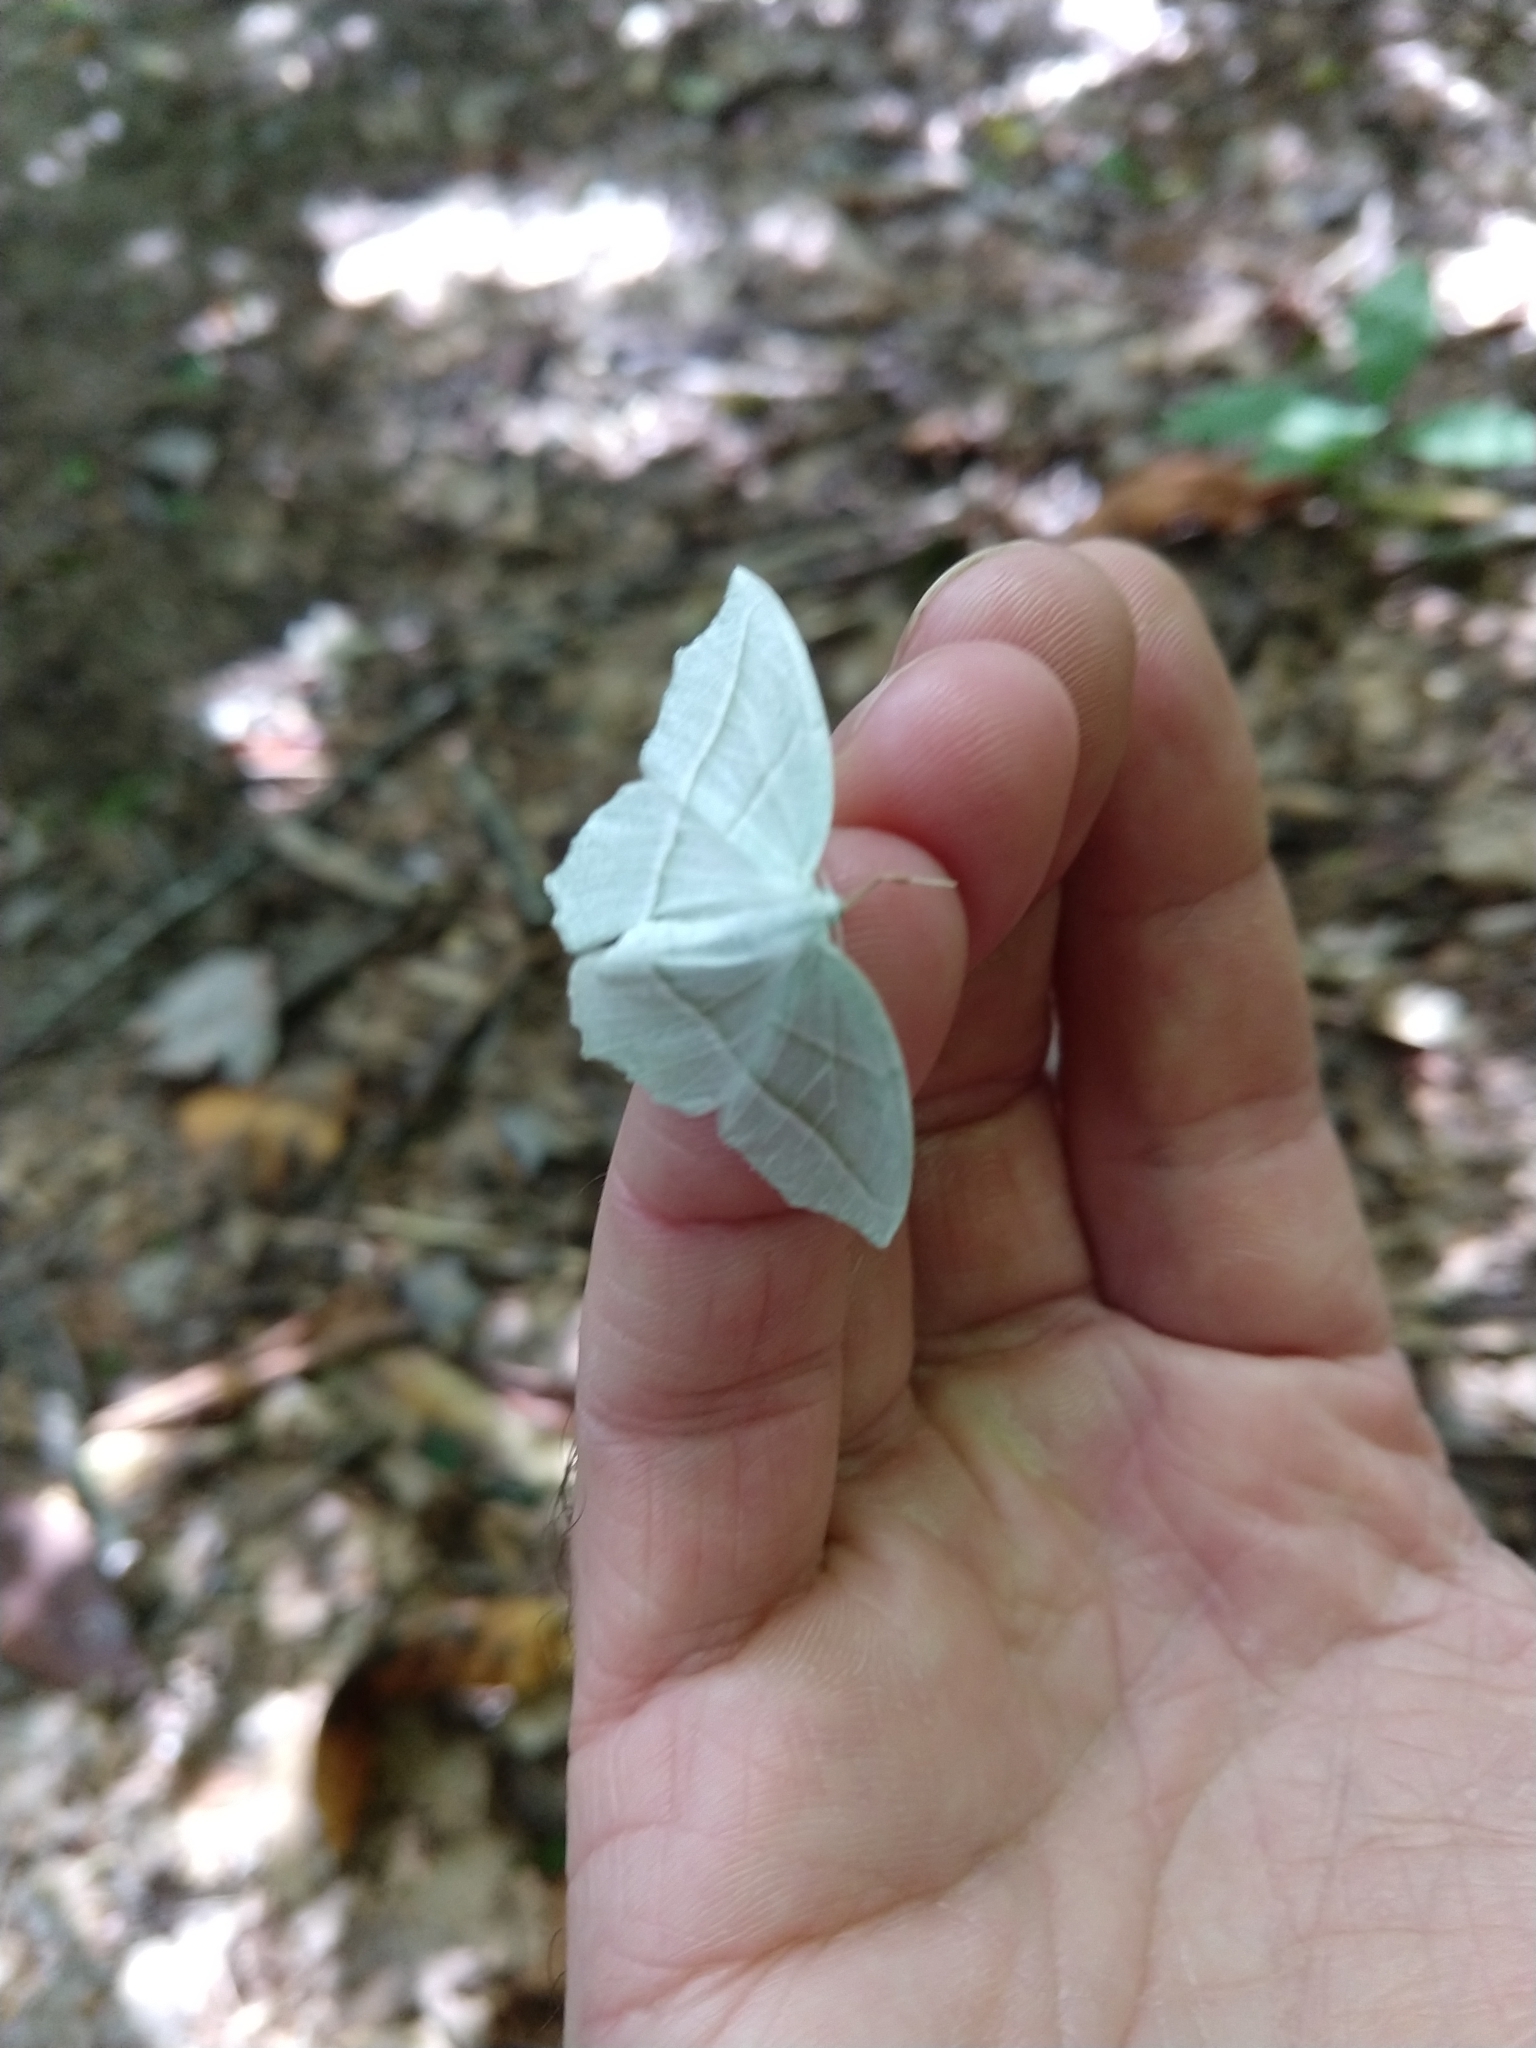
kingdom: Animalia
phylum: Arthropoda
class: Insecta
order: Lepidoptera
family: Geometridae
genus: Campaea
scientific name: Campaea perlata
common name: Fringed looper
